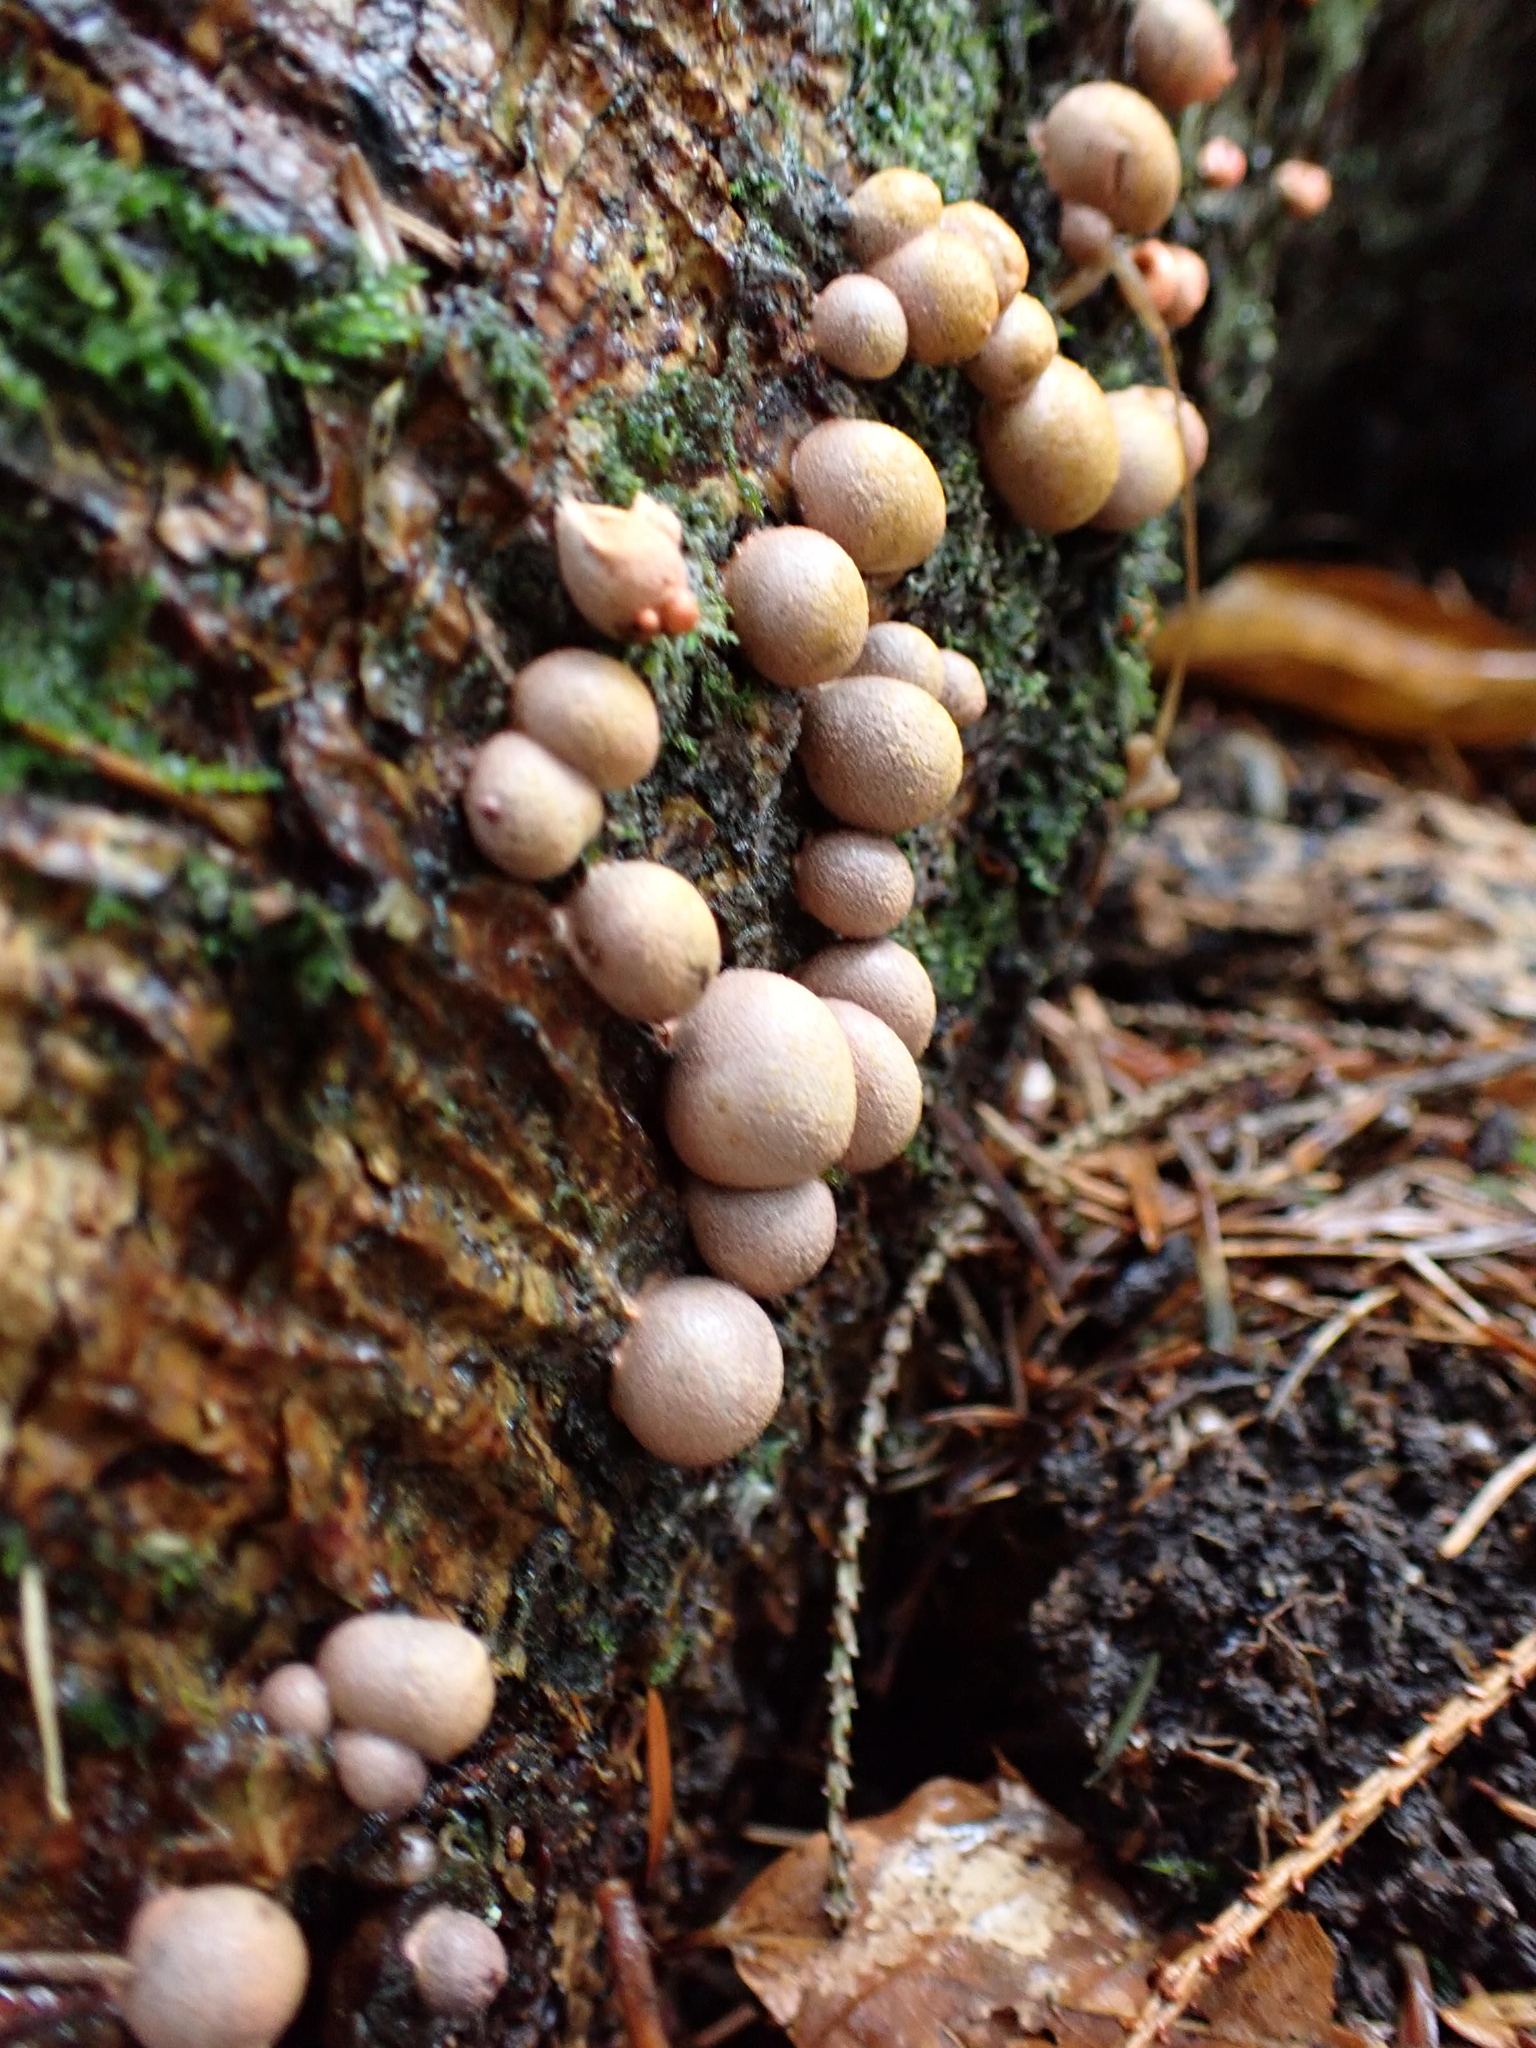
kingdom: Protozoa
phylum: Mycetozoa
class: Myxomycetes
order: Cribrariales
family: Tubiferaceae
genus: Lycogala
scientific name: Lycogala epidendrum
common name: Wolf's milk
